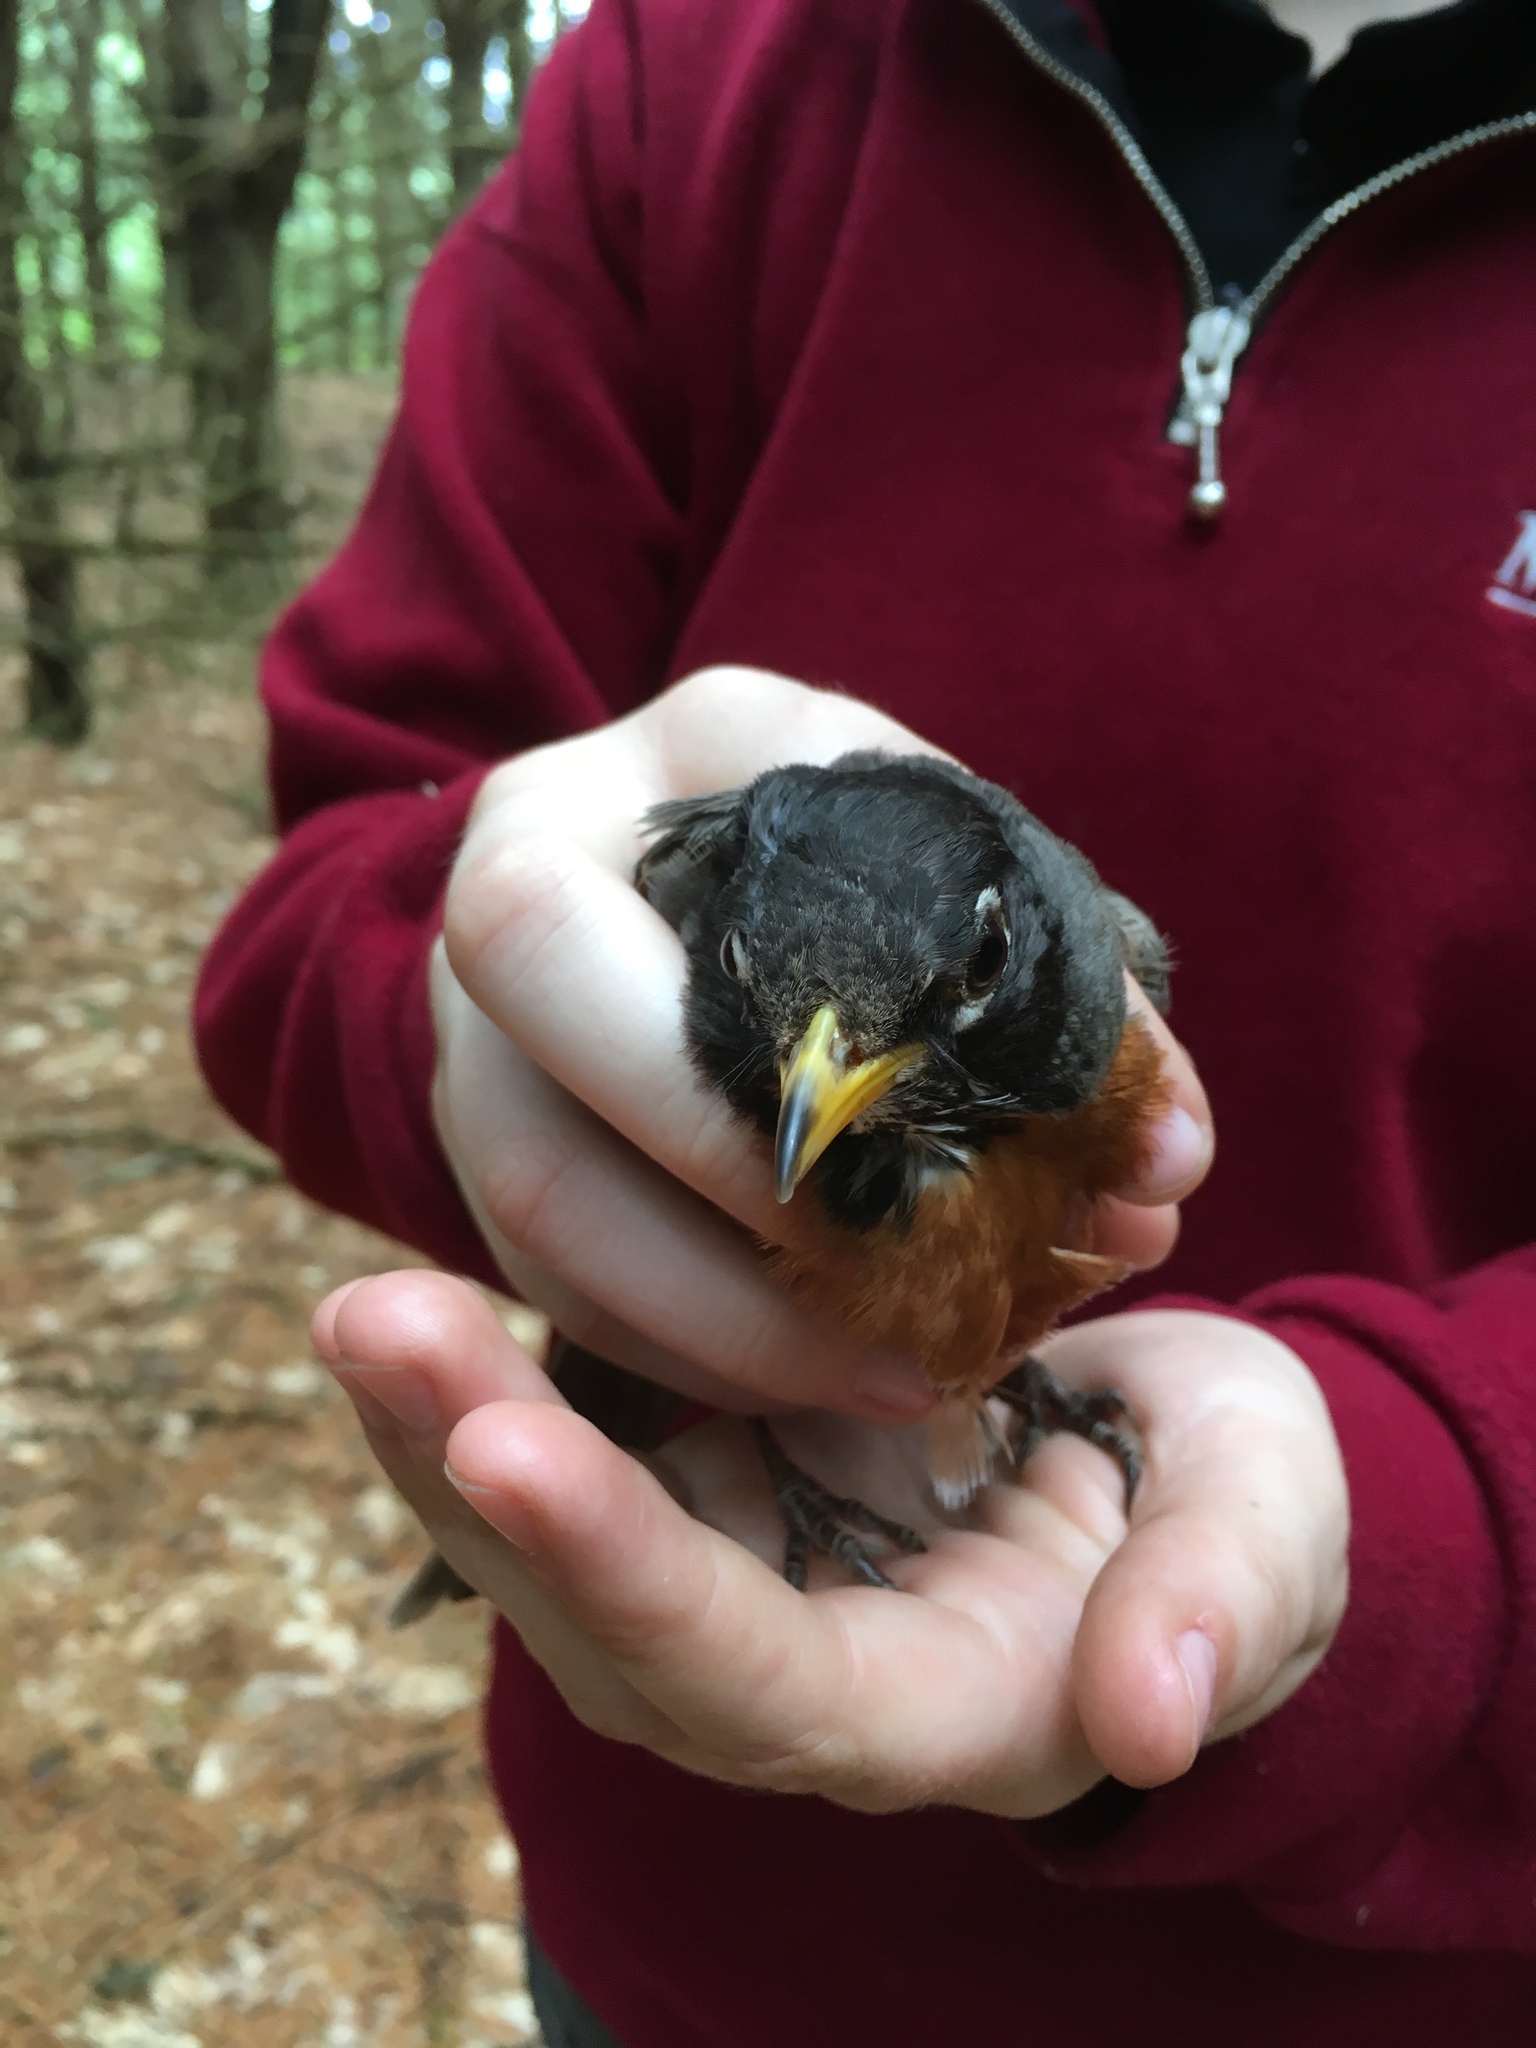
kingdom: Animalia
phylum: Chordata
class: Aves
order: Passeriformes
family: Turdidae
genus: Turdus
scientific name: Turdus migratorius
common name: American robin
